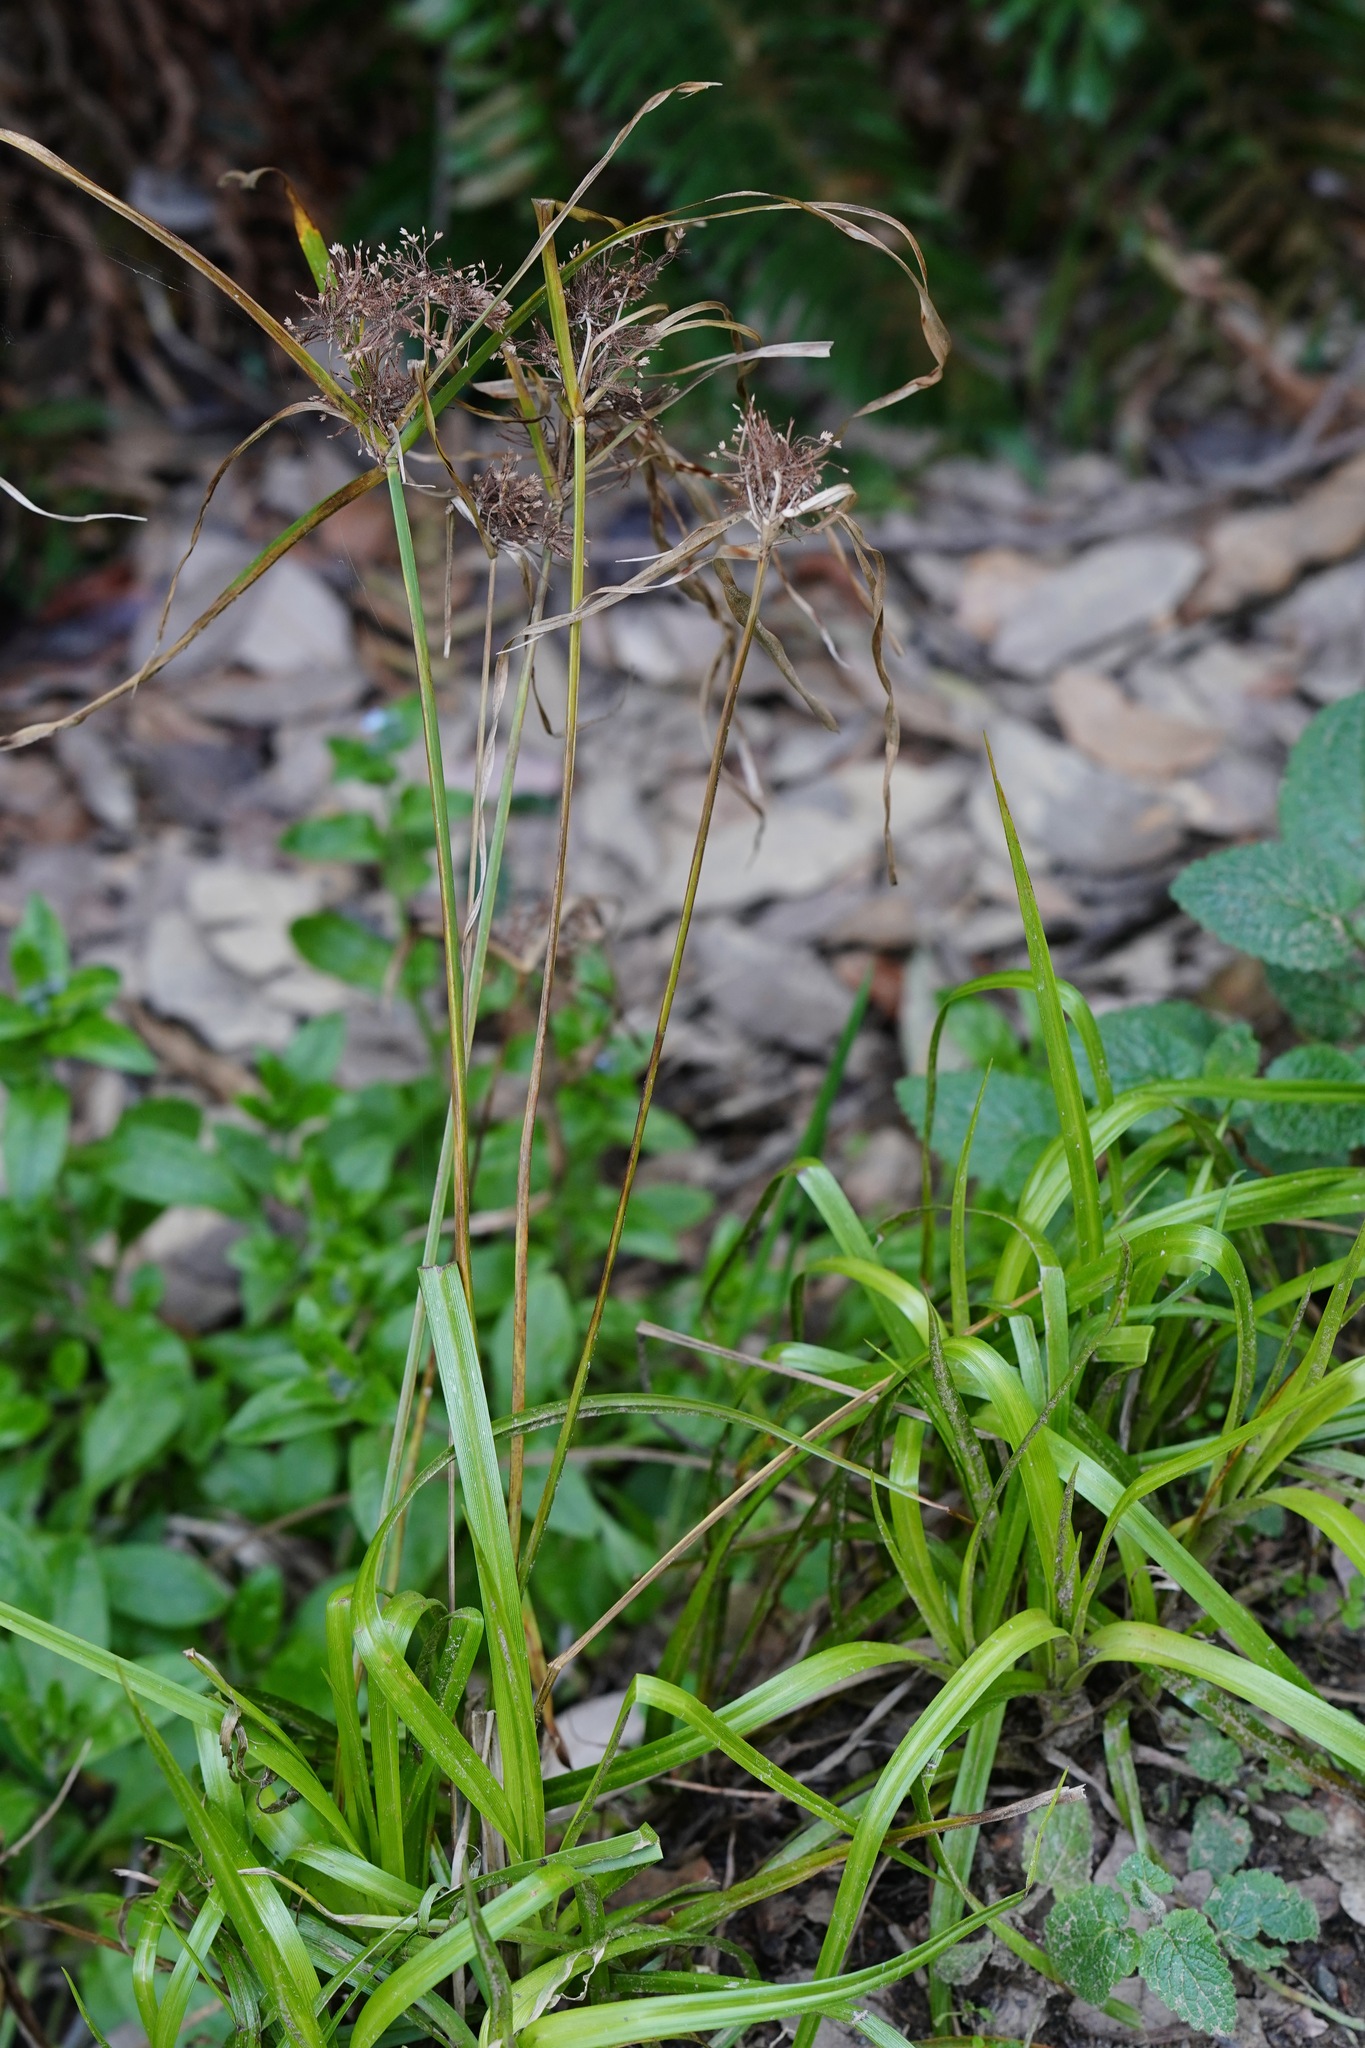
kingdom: Plantae
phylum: Tracheophyta
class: Liliopsida
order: Poales
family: Cyperaceae
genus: Cyperus
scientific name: Cyperus eragrostis
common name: Tall flatsedge
